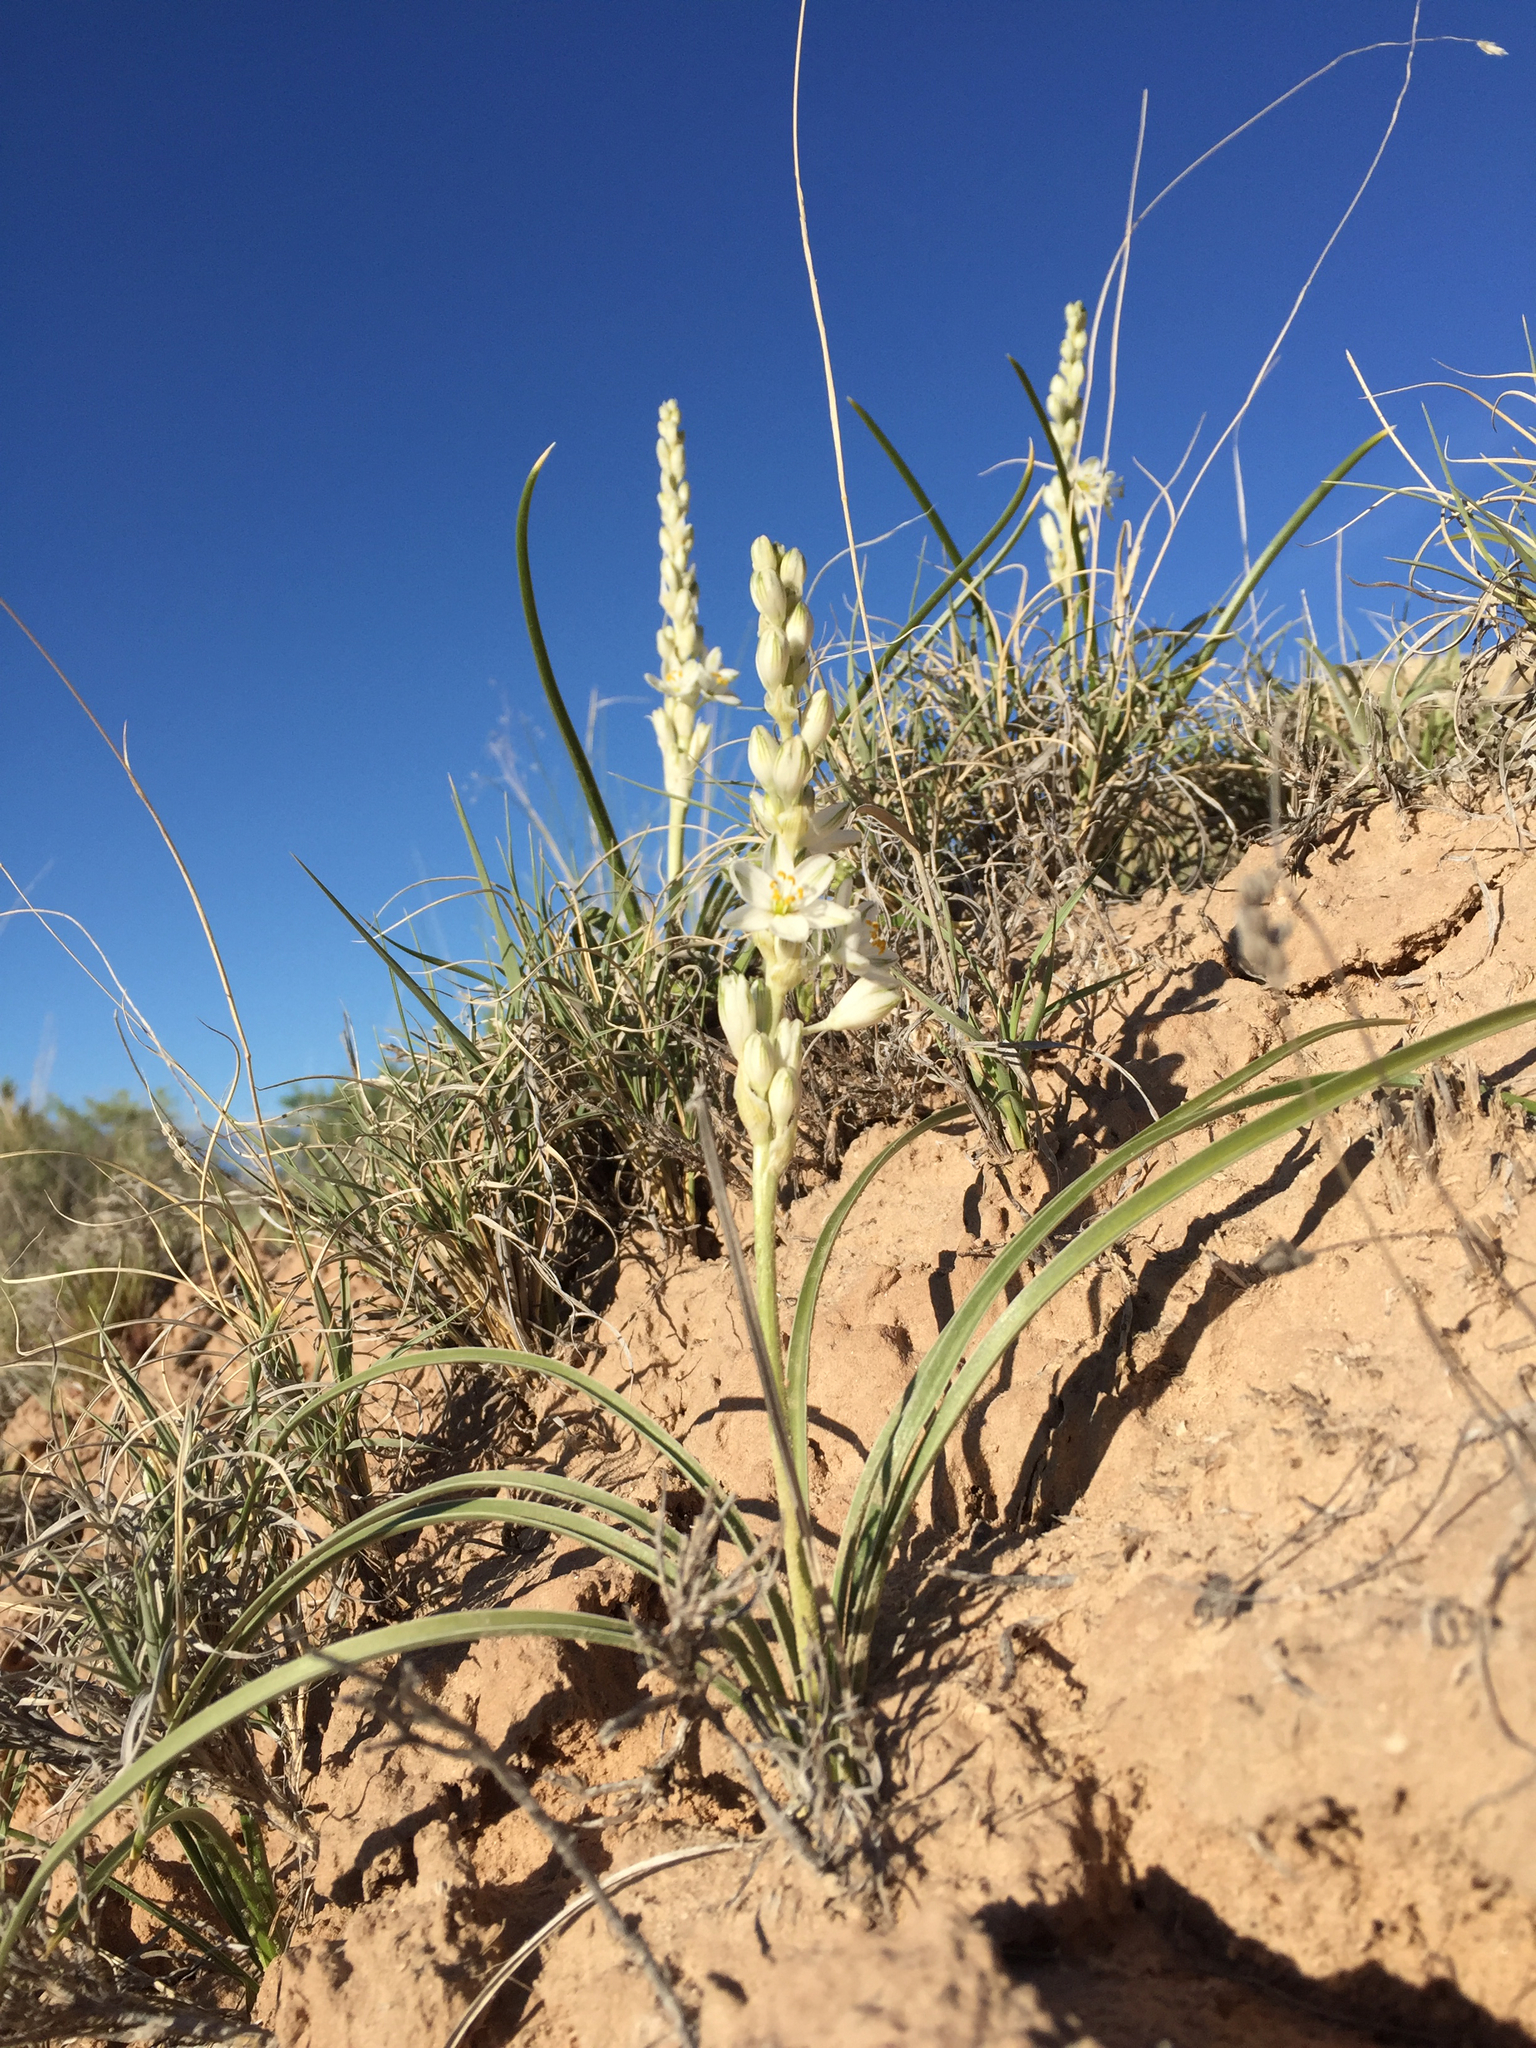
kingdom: Plantae
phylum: Tracheophyta
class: Liliopsida
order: Asparagales
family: Asparagaceae
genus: Eremocrinum
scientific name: Eremocrinum albomarginatum
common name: Sand-lily
